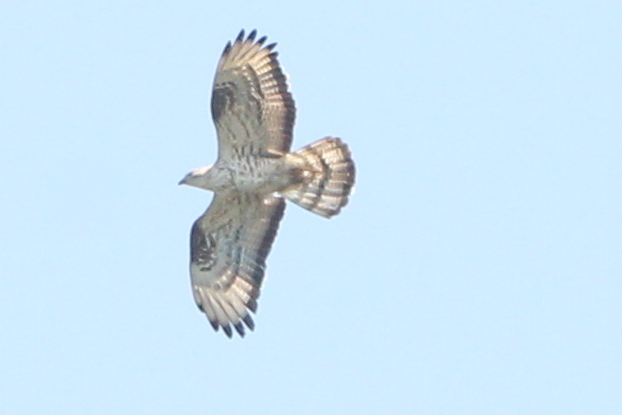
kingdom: Animalia
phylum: Chordata
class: Aves
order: Accipitriformes
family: Accipitridae
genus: Pernis
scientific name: Pernis apivorus
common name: European honey buzzard
